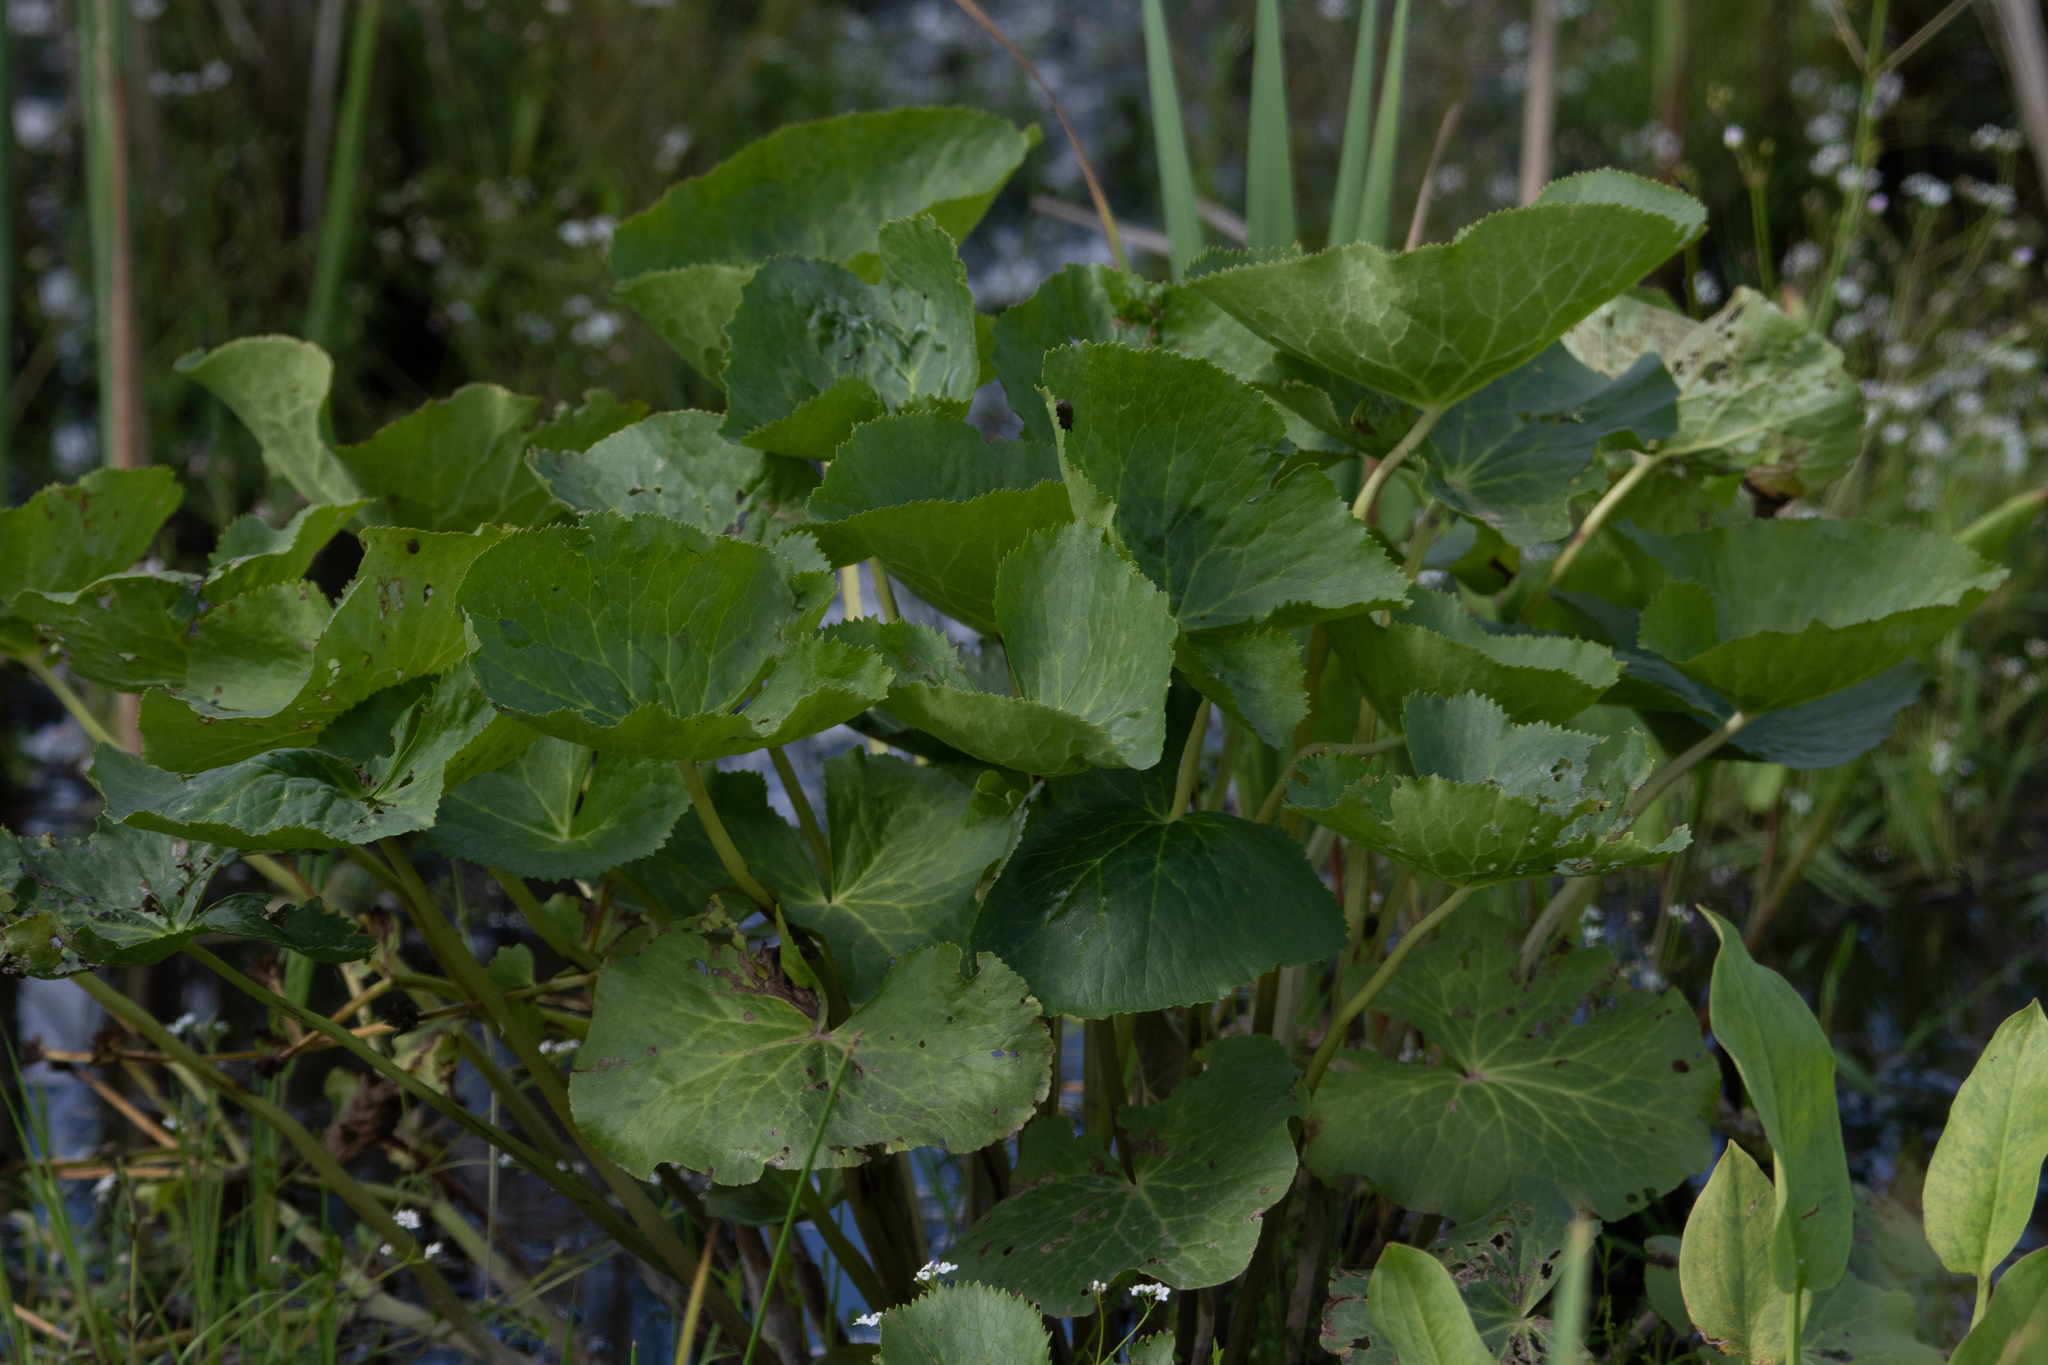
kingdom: Plantae
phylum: Tracheophyta
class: Magnoliopsida
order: Ranunculales
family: Ranunculaceae
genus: Caltha
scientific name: Caltha palustris
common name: Marsh marigold
